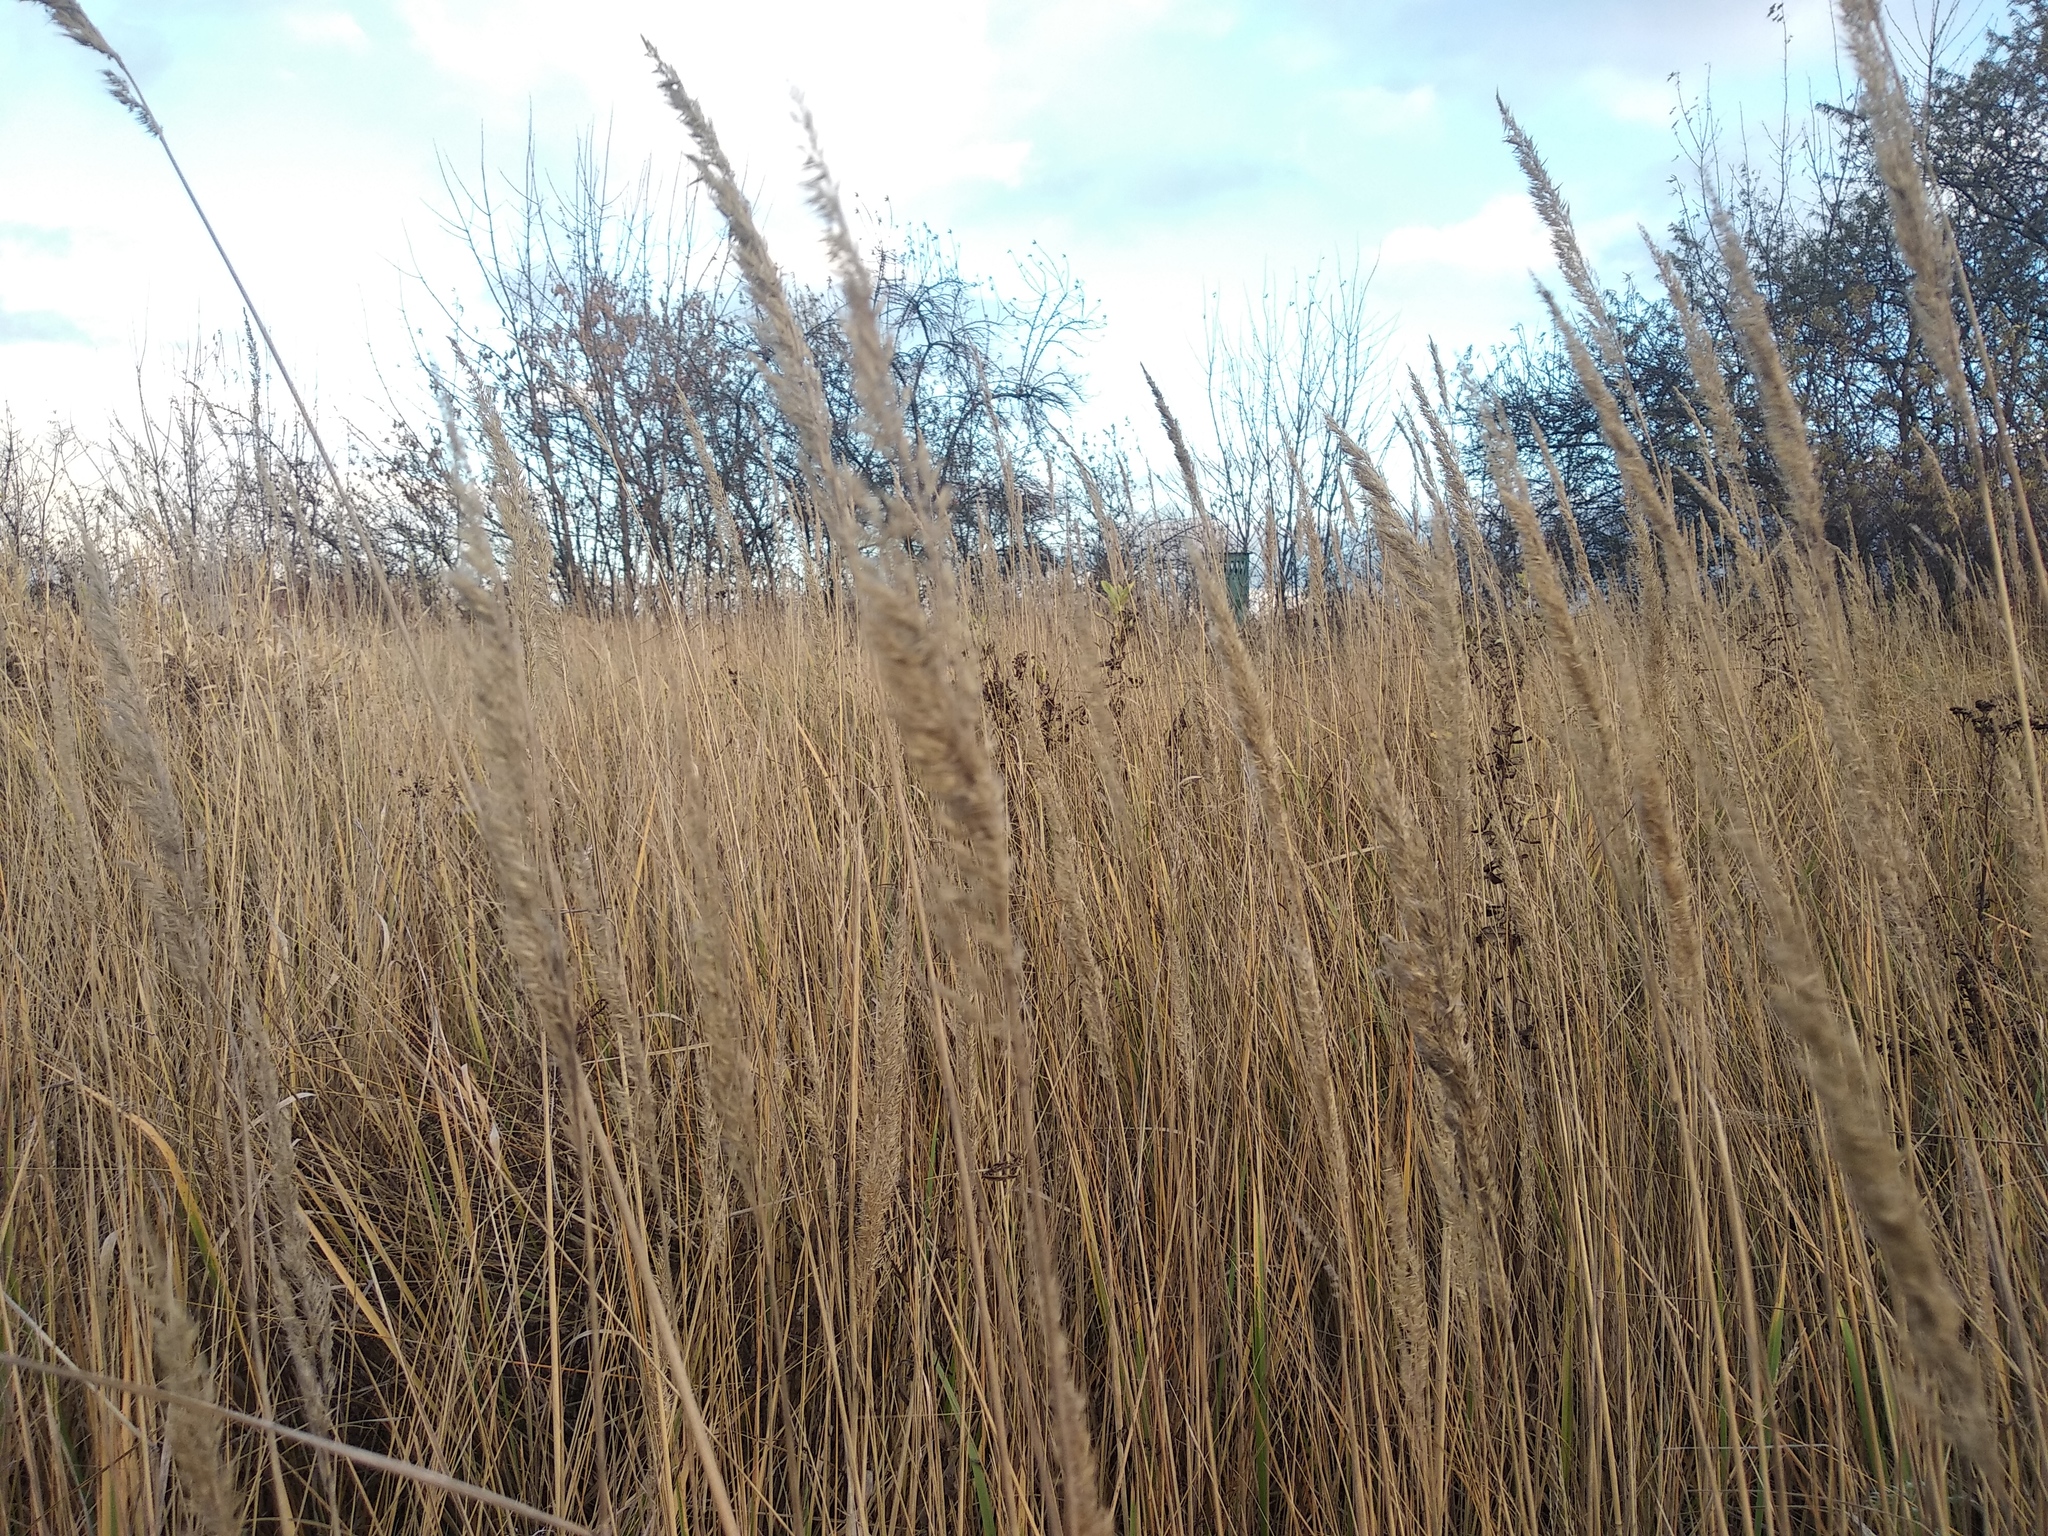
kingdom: Plantae
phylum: Tracheophyta
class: Liliopsida
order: Poales
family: Poaceae
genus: Calamagrostis
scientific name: Calamagrostis epigejos
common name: Wood small-reed
